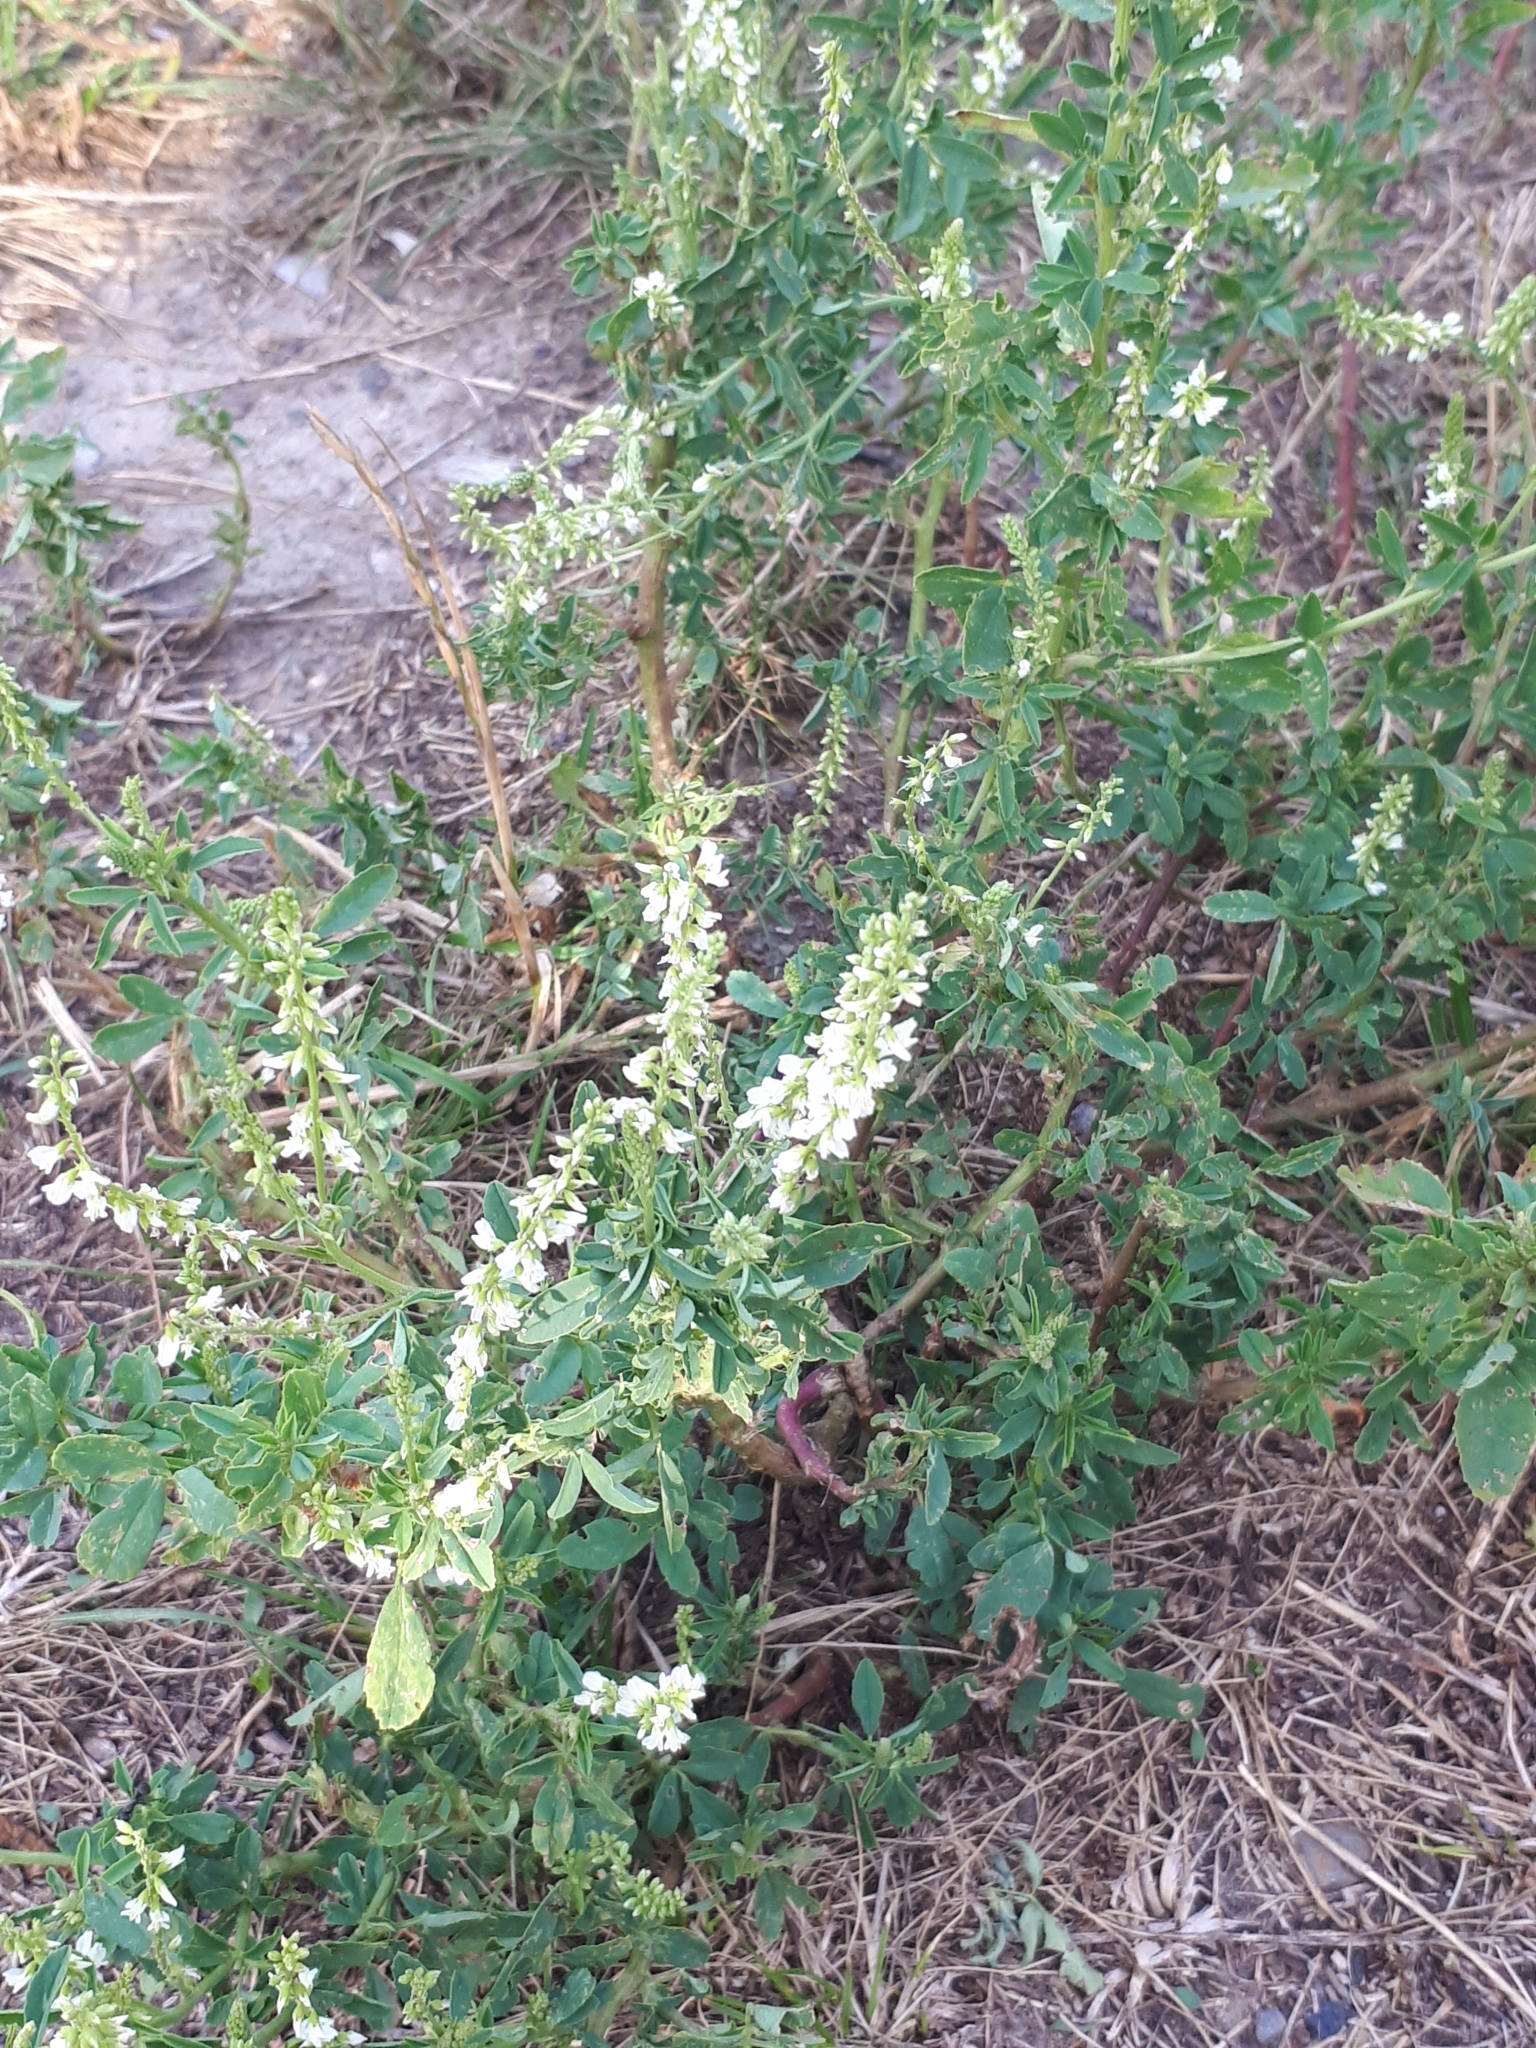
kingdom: Plantae
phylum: Tracheophyta
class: Magnoliopsida
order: Fabales
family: Fabaceae
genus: Melilotus
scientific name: Melilotus albus
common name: White melilot
